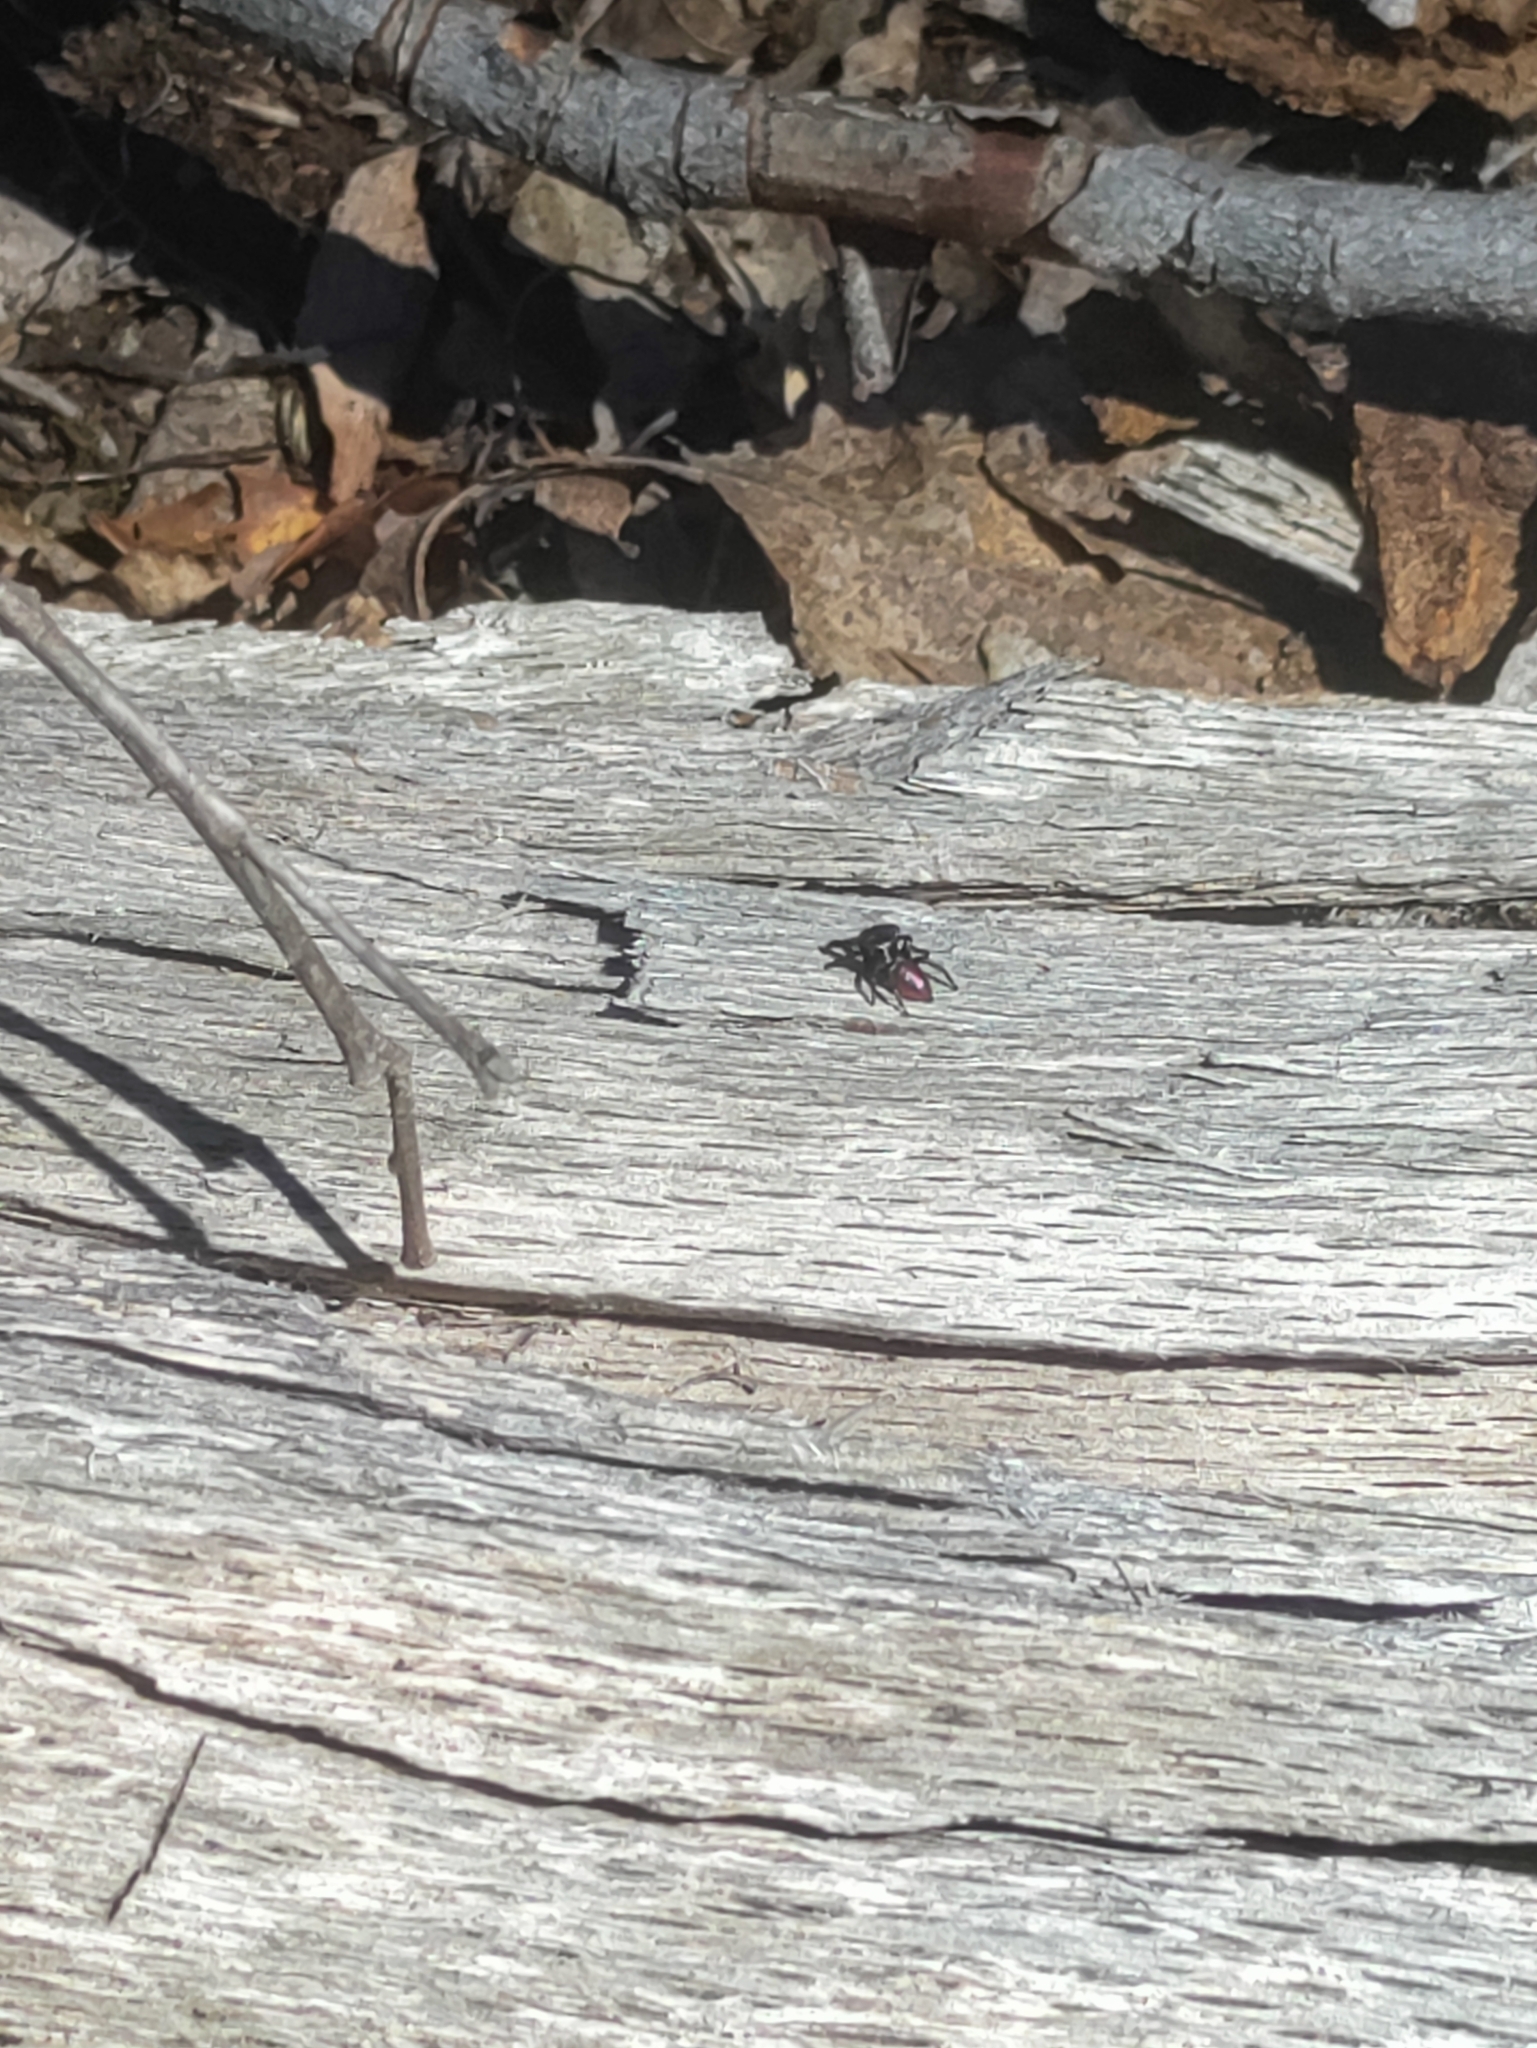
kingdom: Animalia
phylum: Arthropoda
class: Arachnida
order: Araneae
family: Salticidae
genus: Habronattus
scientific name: Habronattus decorus
